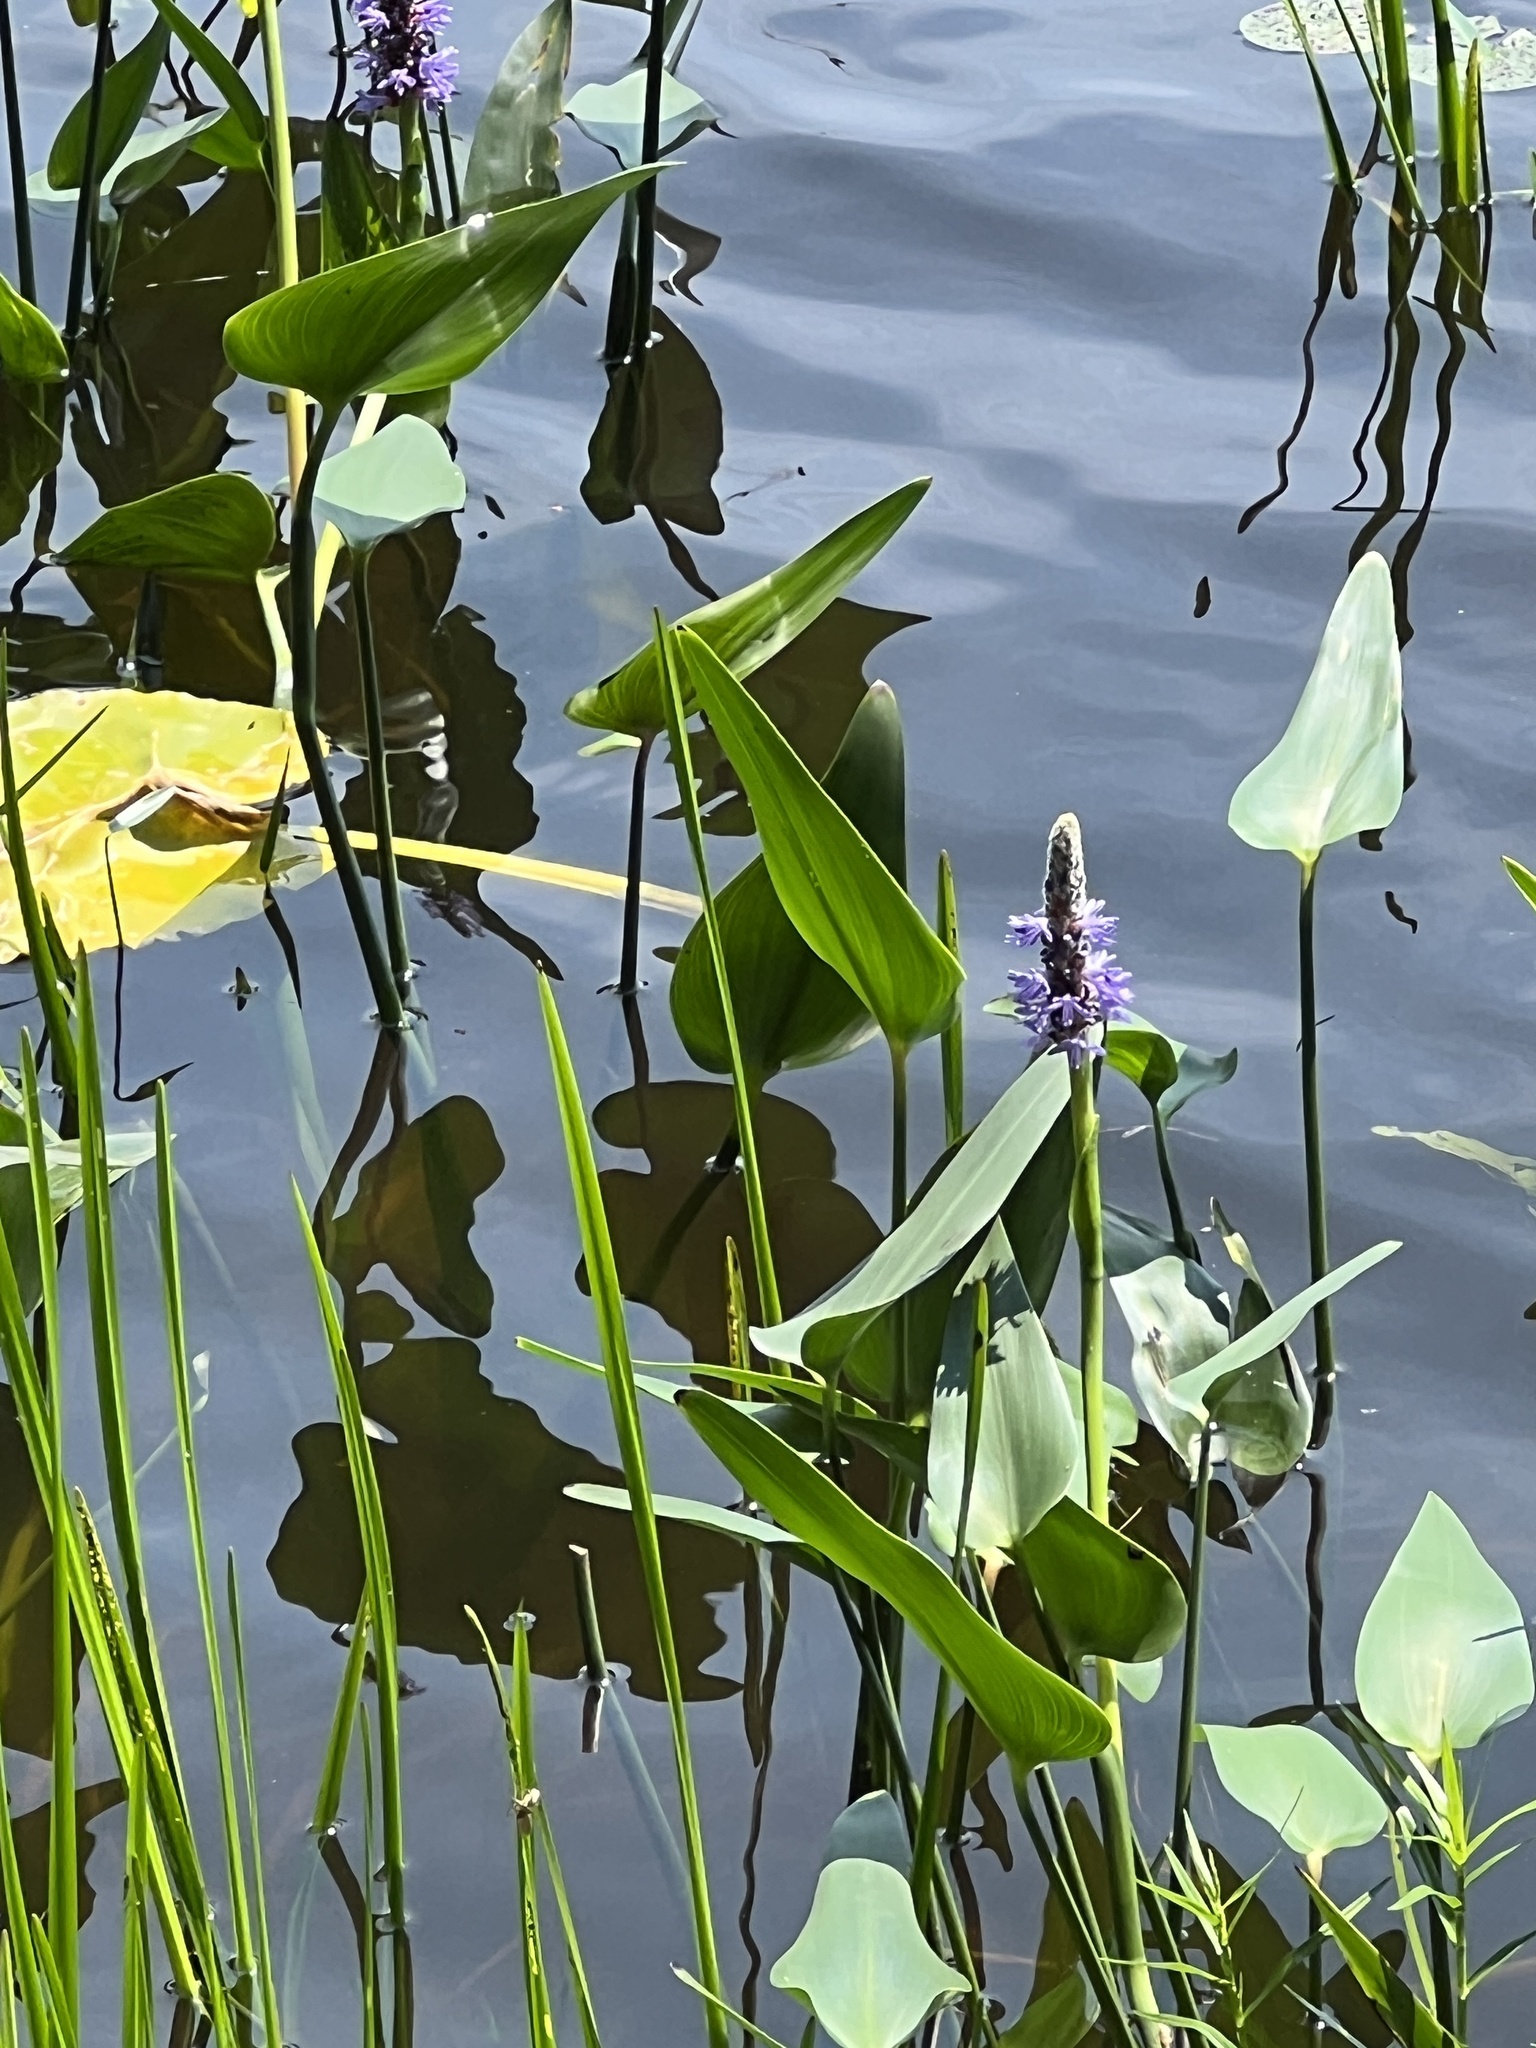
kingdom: Plantae
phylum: Tracheophyta
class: Liliopsida
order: Commelinales
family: Pontederiaceae
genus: Pontederia
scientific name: Pontederia cordata
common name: Pickerelweed
